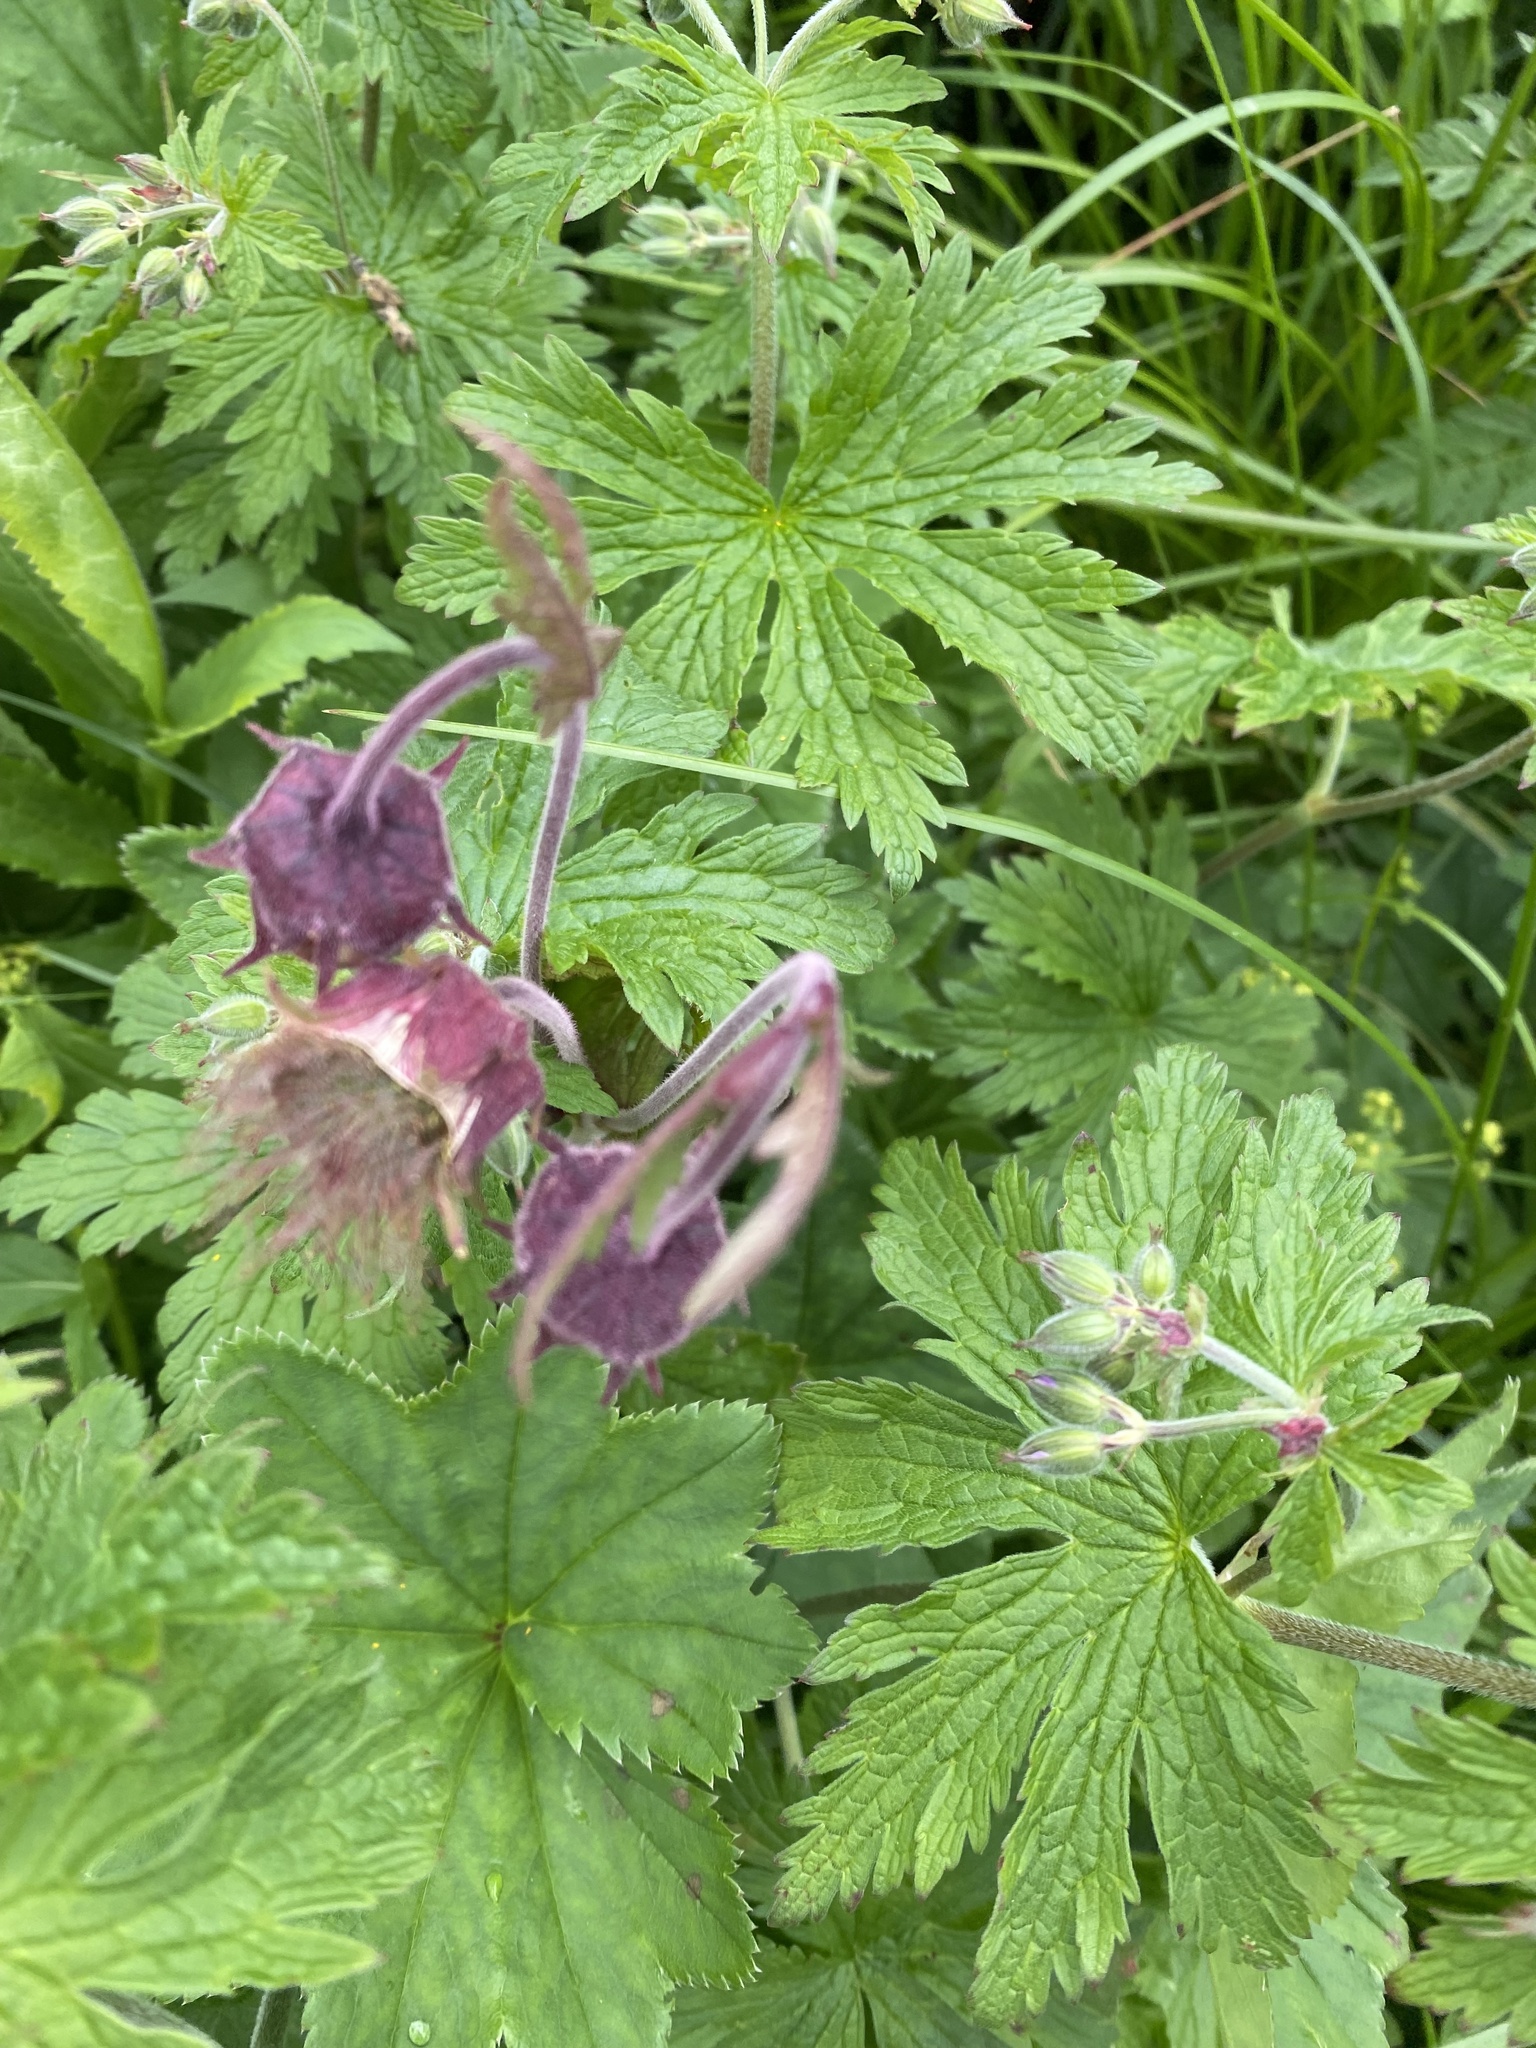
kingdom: Plantae
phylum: Tracheophyta
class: Magnoliopsida
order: Rosales
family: Rosaceae
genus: Geum
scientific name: Geum rivale
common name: Water avens
